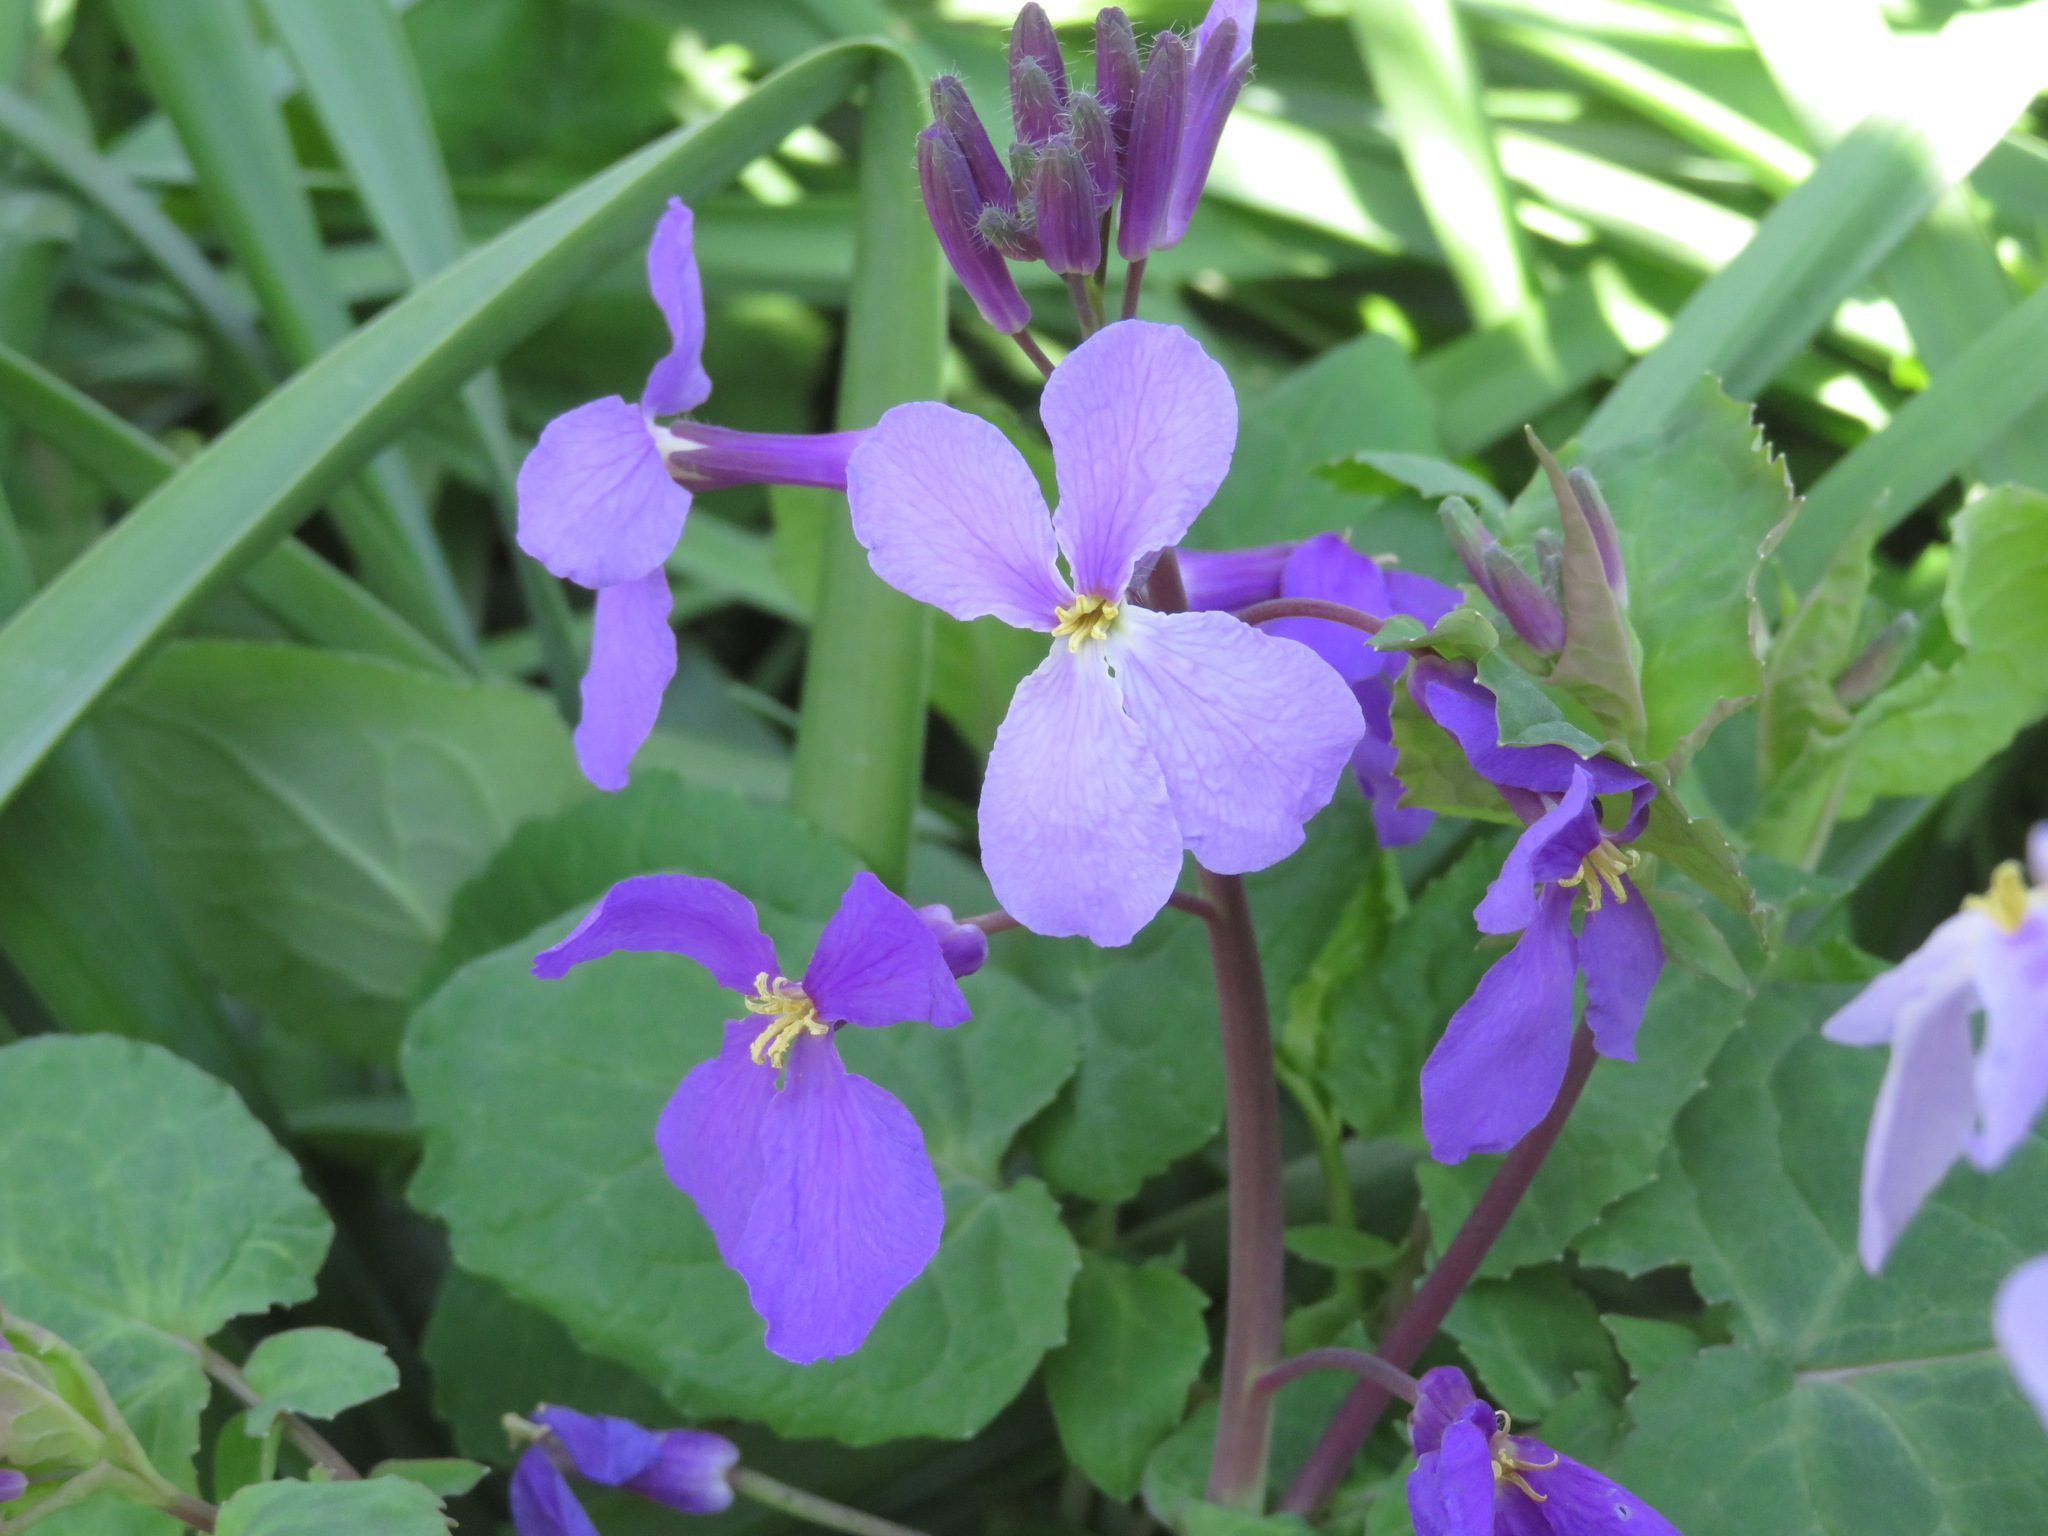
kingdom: Plantae
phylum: Tracheophyta
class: Magnoliopsida
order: Brassicales
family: Brassicaceae
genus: Orychophragmus
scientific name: Orychophragmus violaceus
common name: Mustard
